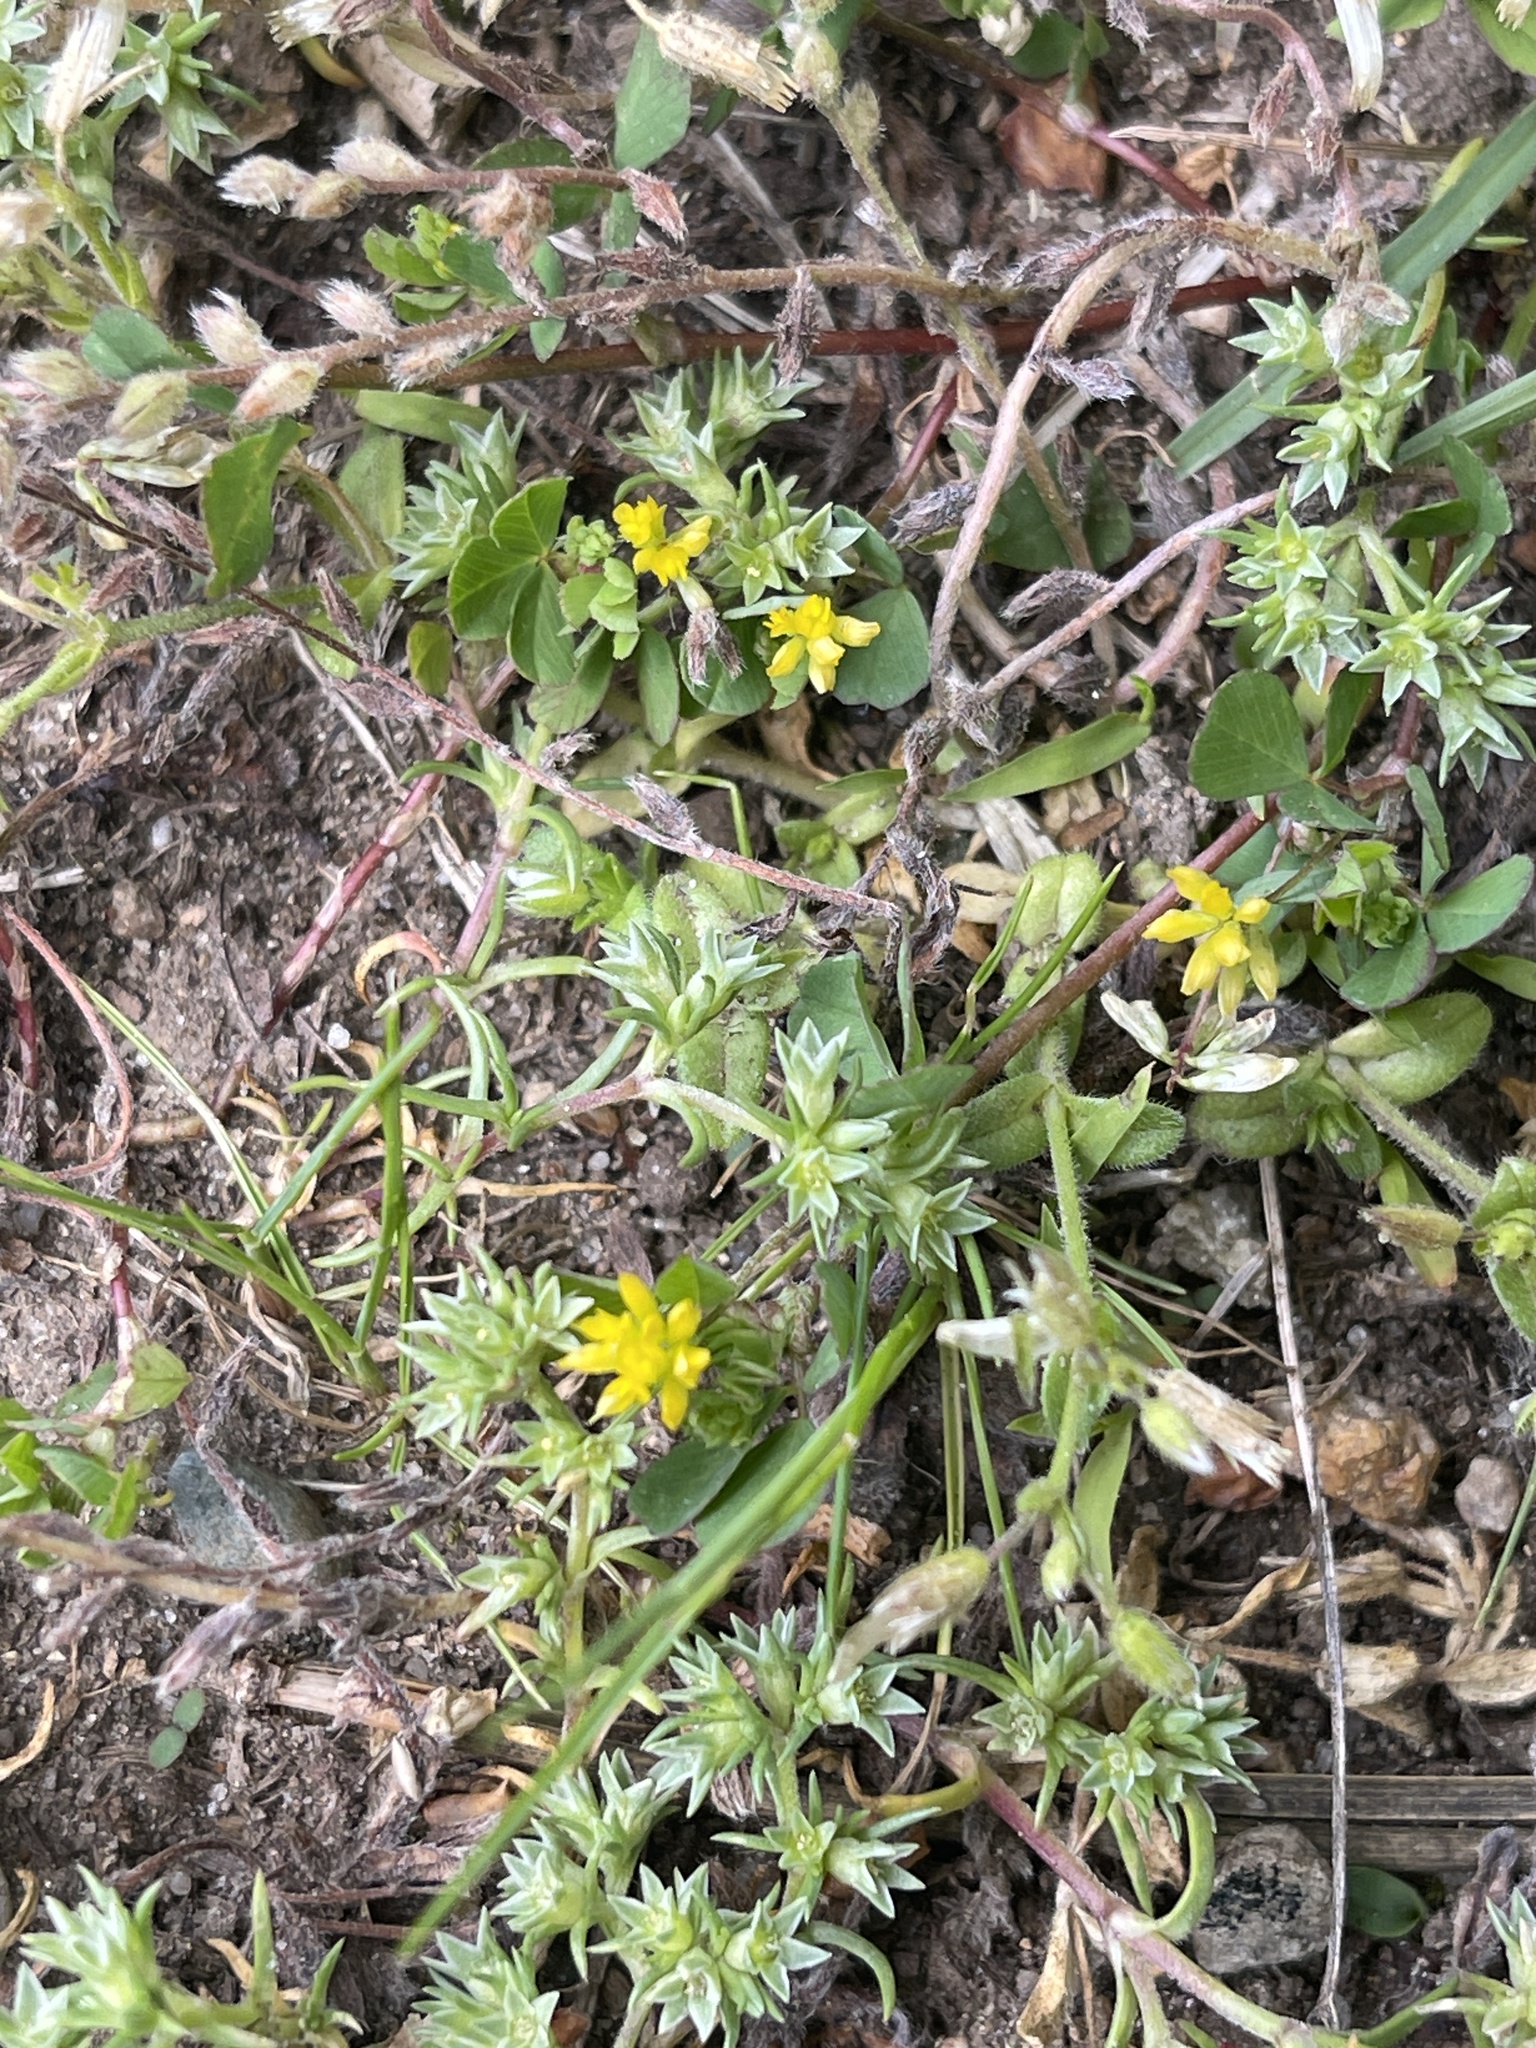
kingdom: Plantae
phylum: Tracheophyta
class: Magnoliopsida
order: Fabales
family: Fabaceae
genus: Trifolium
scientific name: Trifolium dubium
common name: Suckling clover
